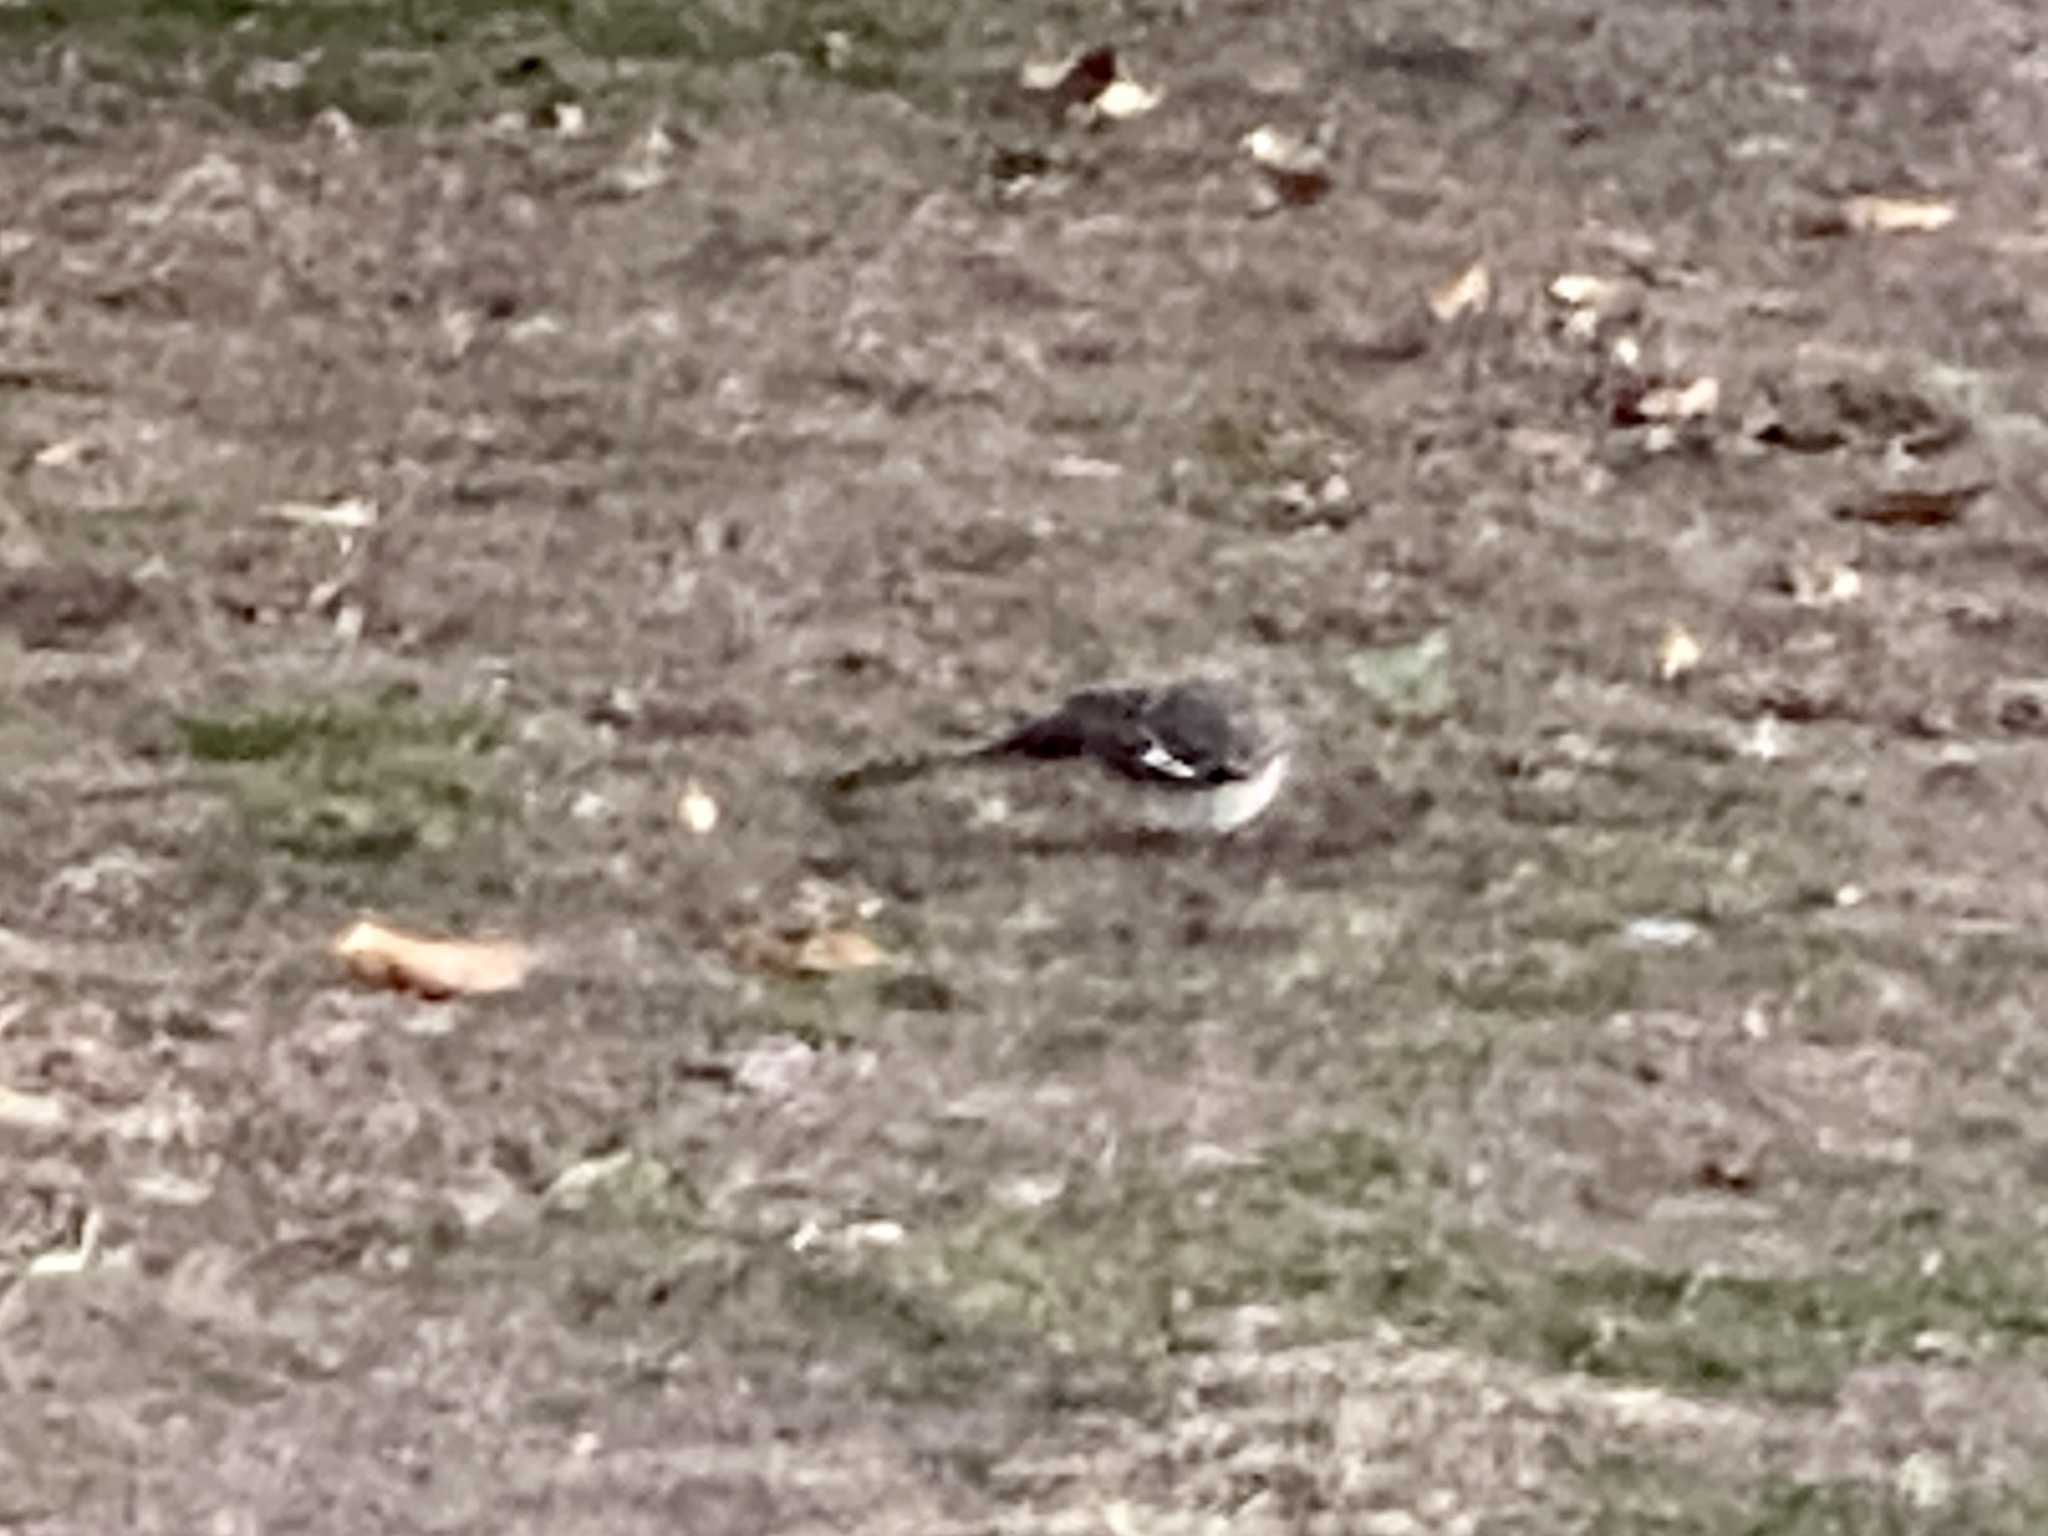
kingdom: Animalia
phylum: Chordata
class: Aves
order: Passeriformes
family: Mimidae
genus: Mimus
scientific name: Mimus polyglottos
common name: Northern mockingbird
